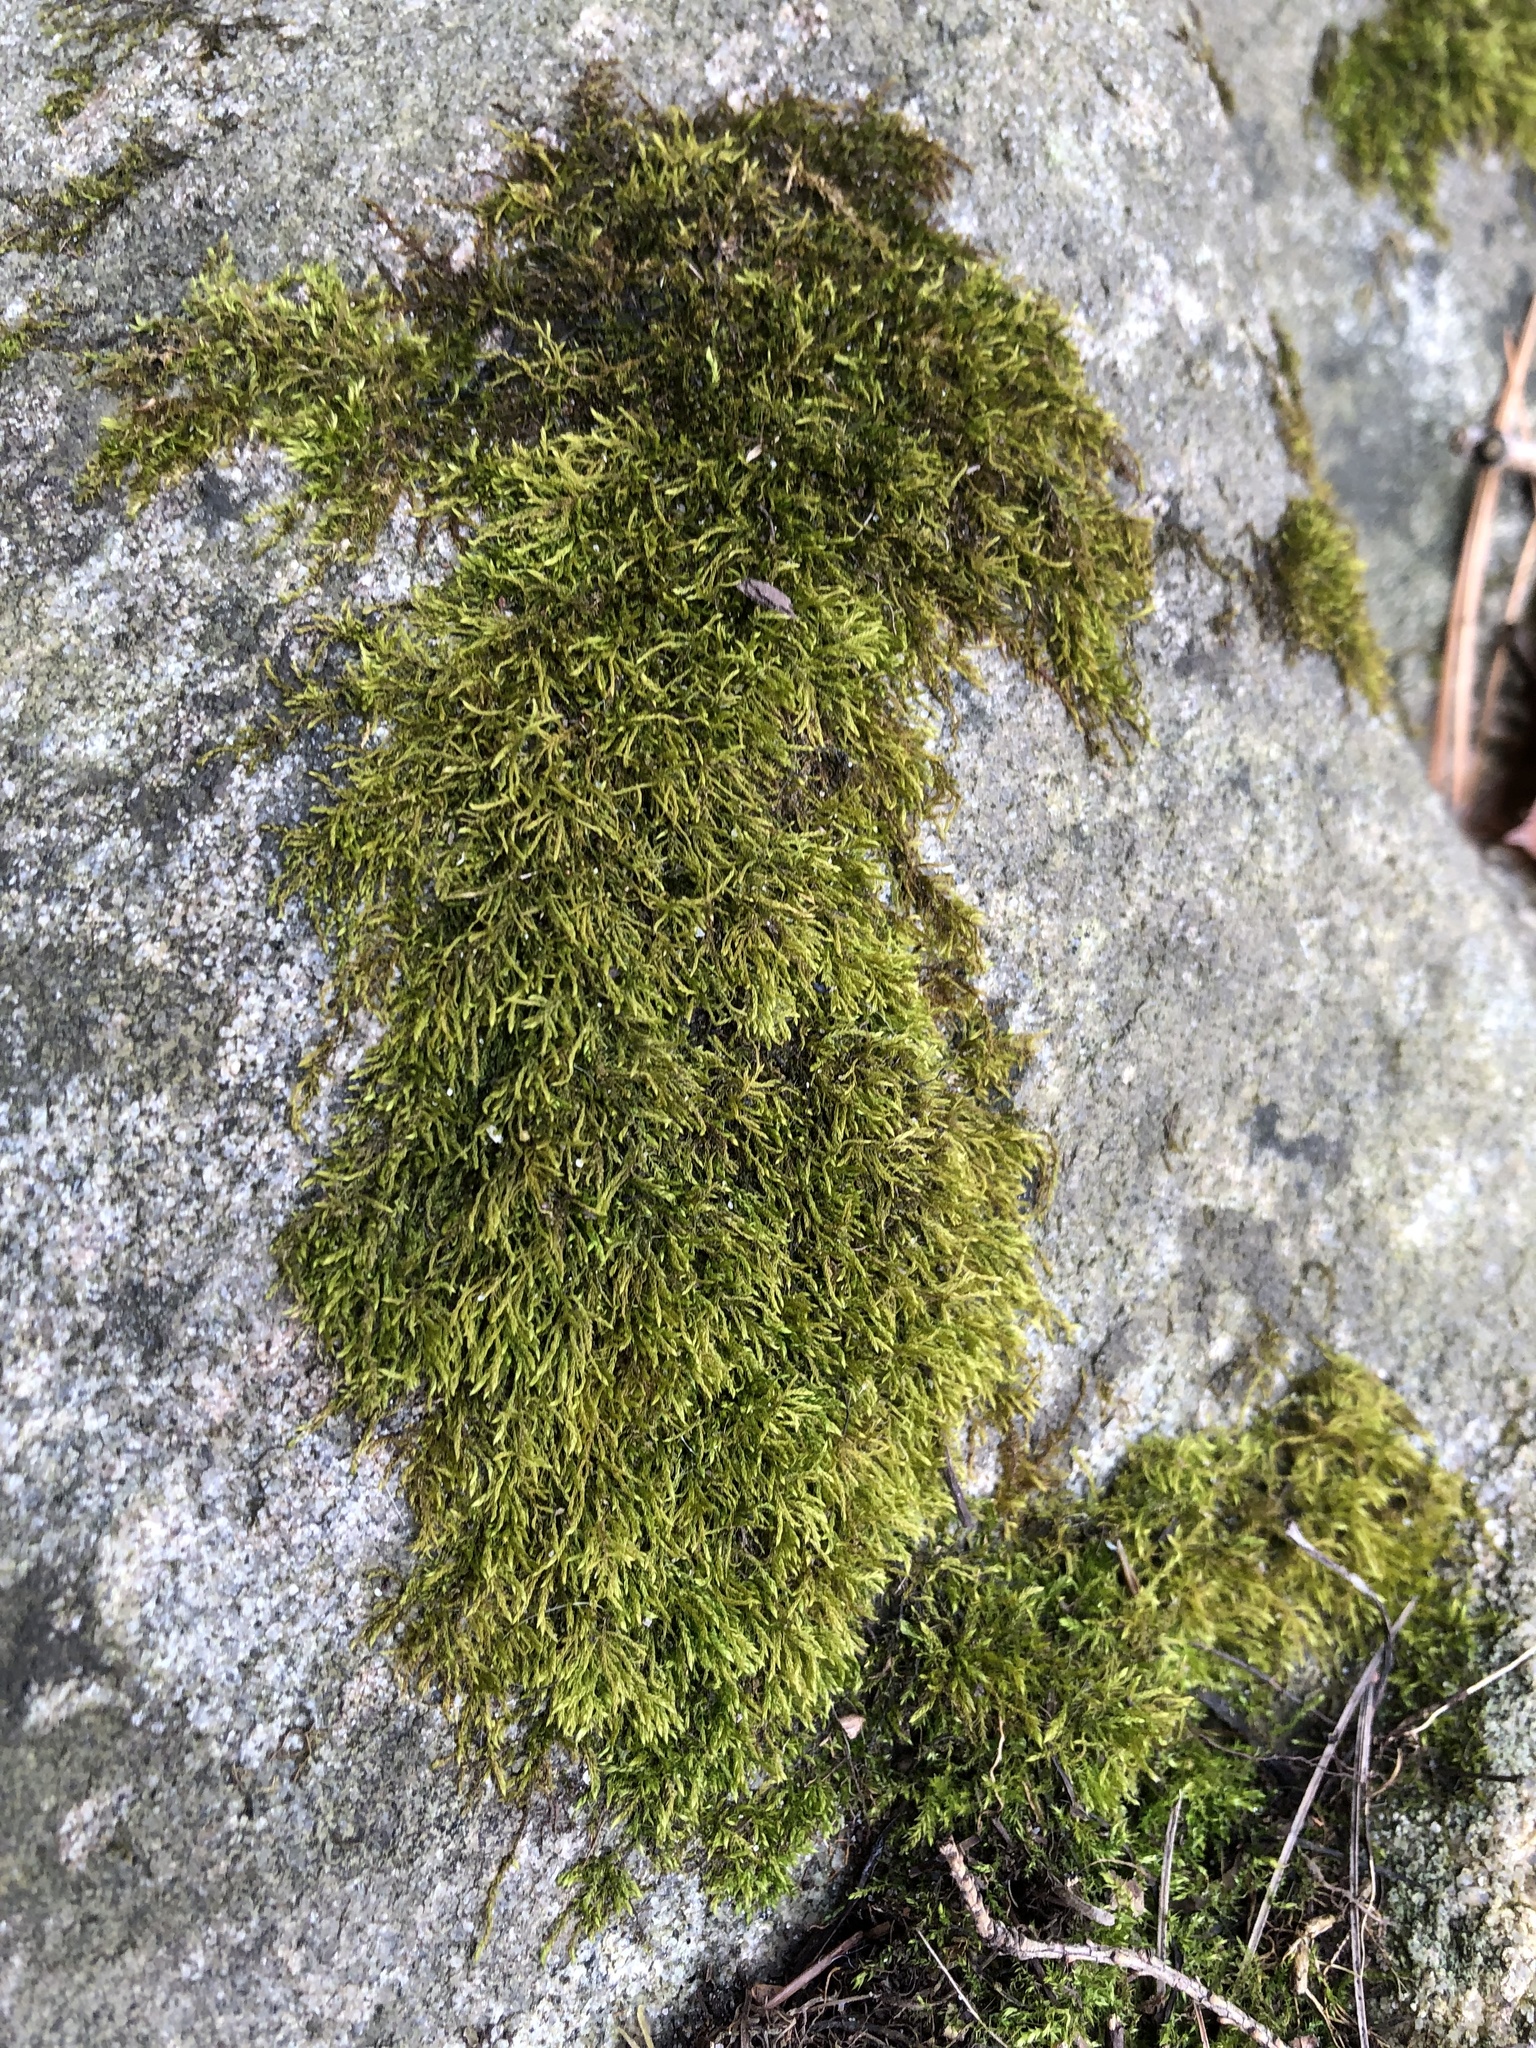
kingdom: Plantae
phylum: Bryophyta
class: Bryopsida
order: Hypnales
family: Neckeraceae
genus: Pseudanomodon
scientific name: Pseudanomodon attenuatus
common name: Tree-skirt moss
